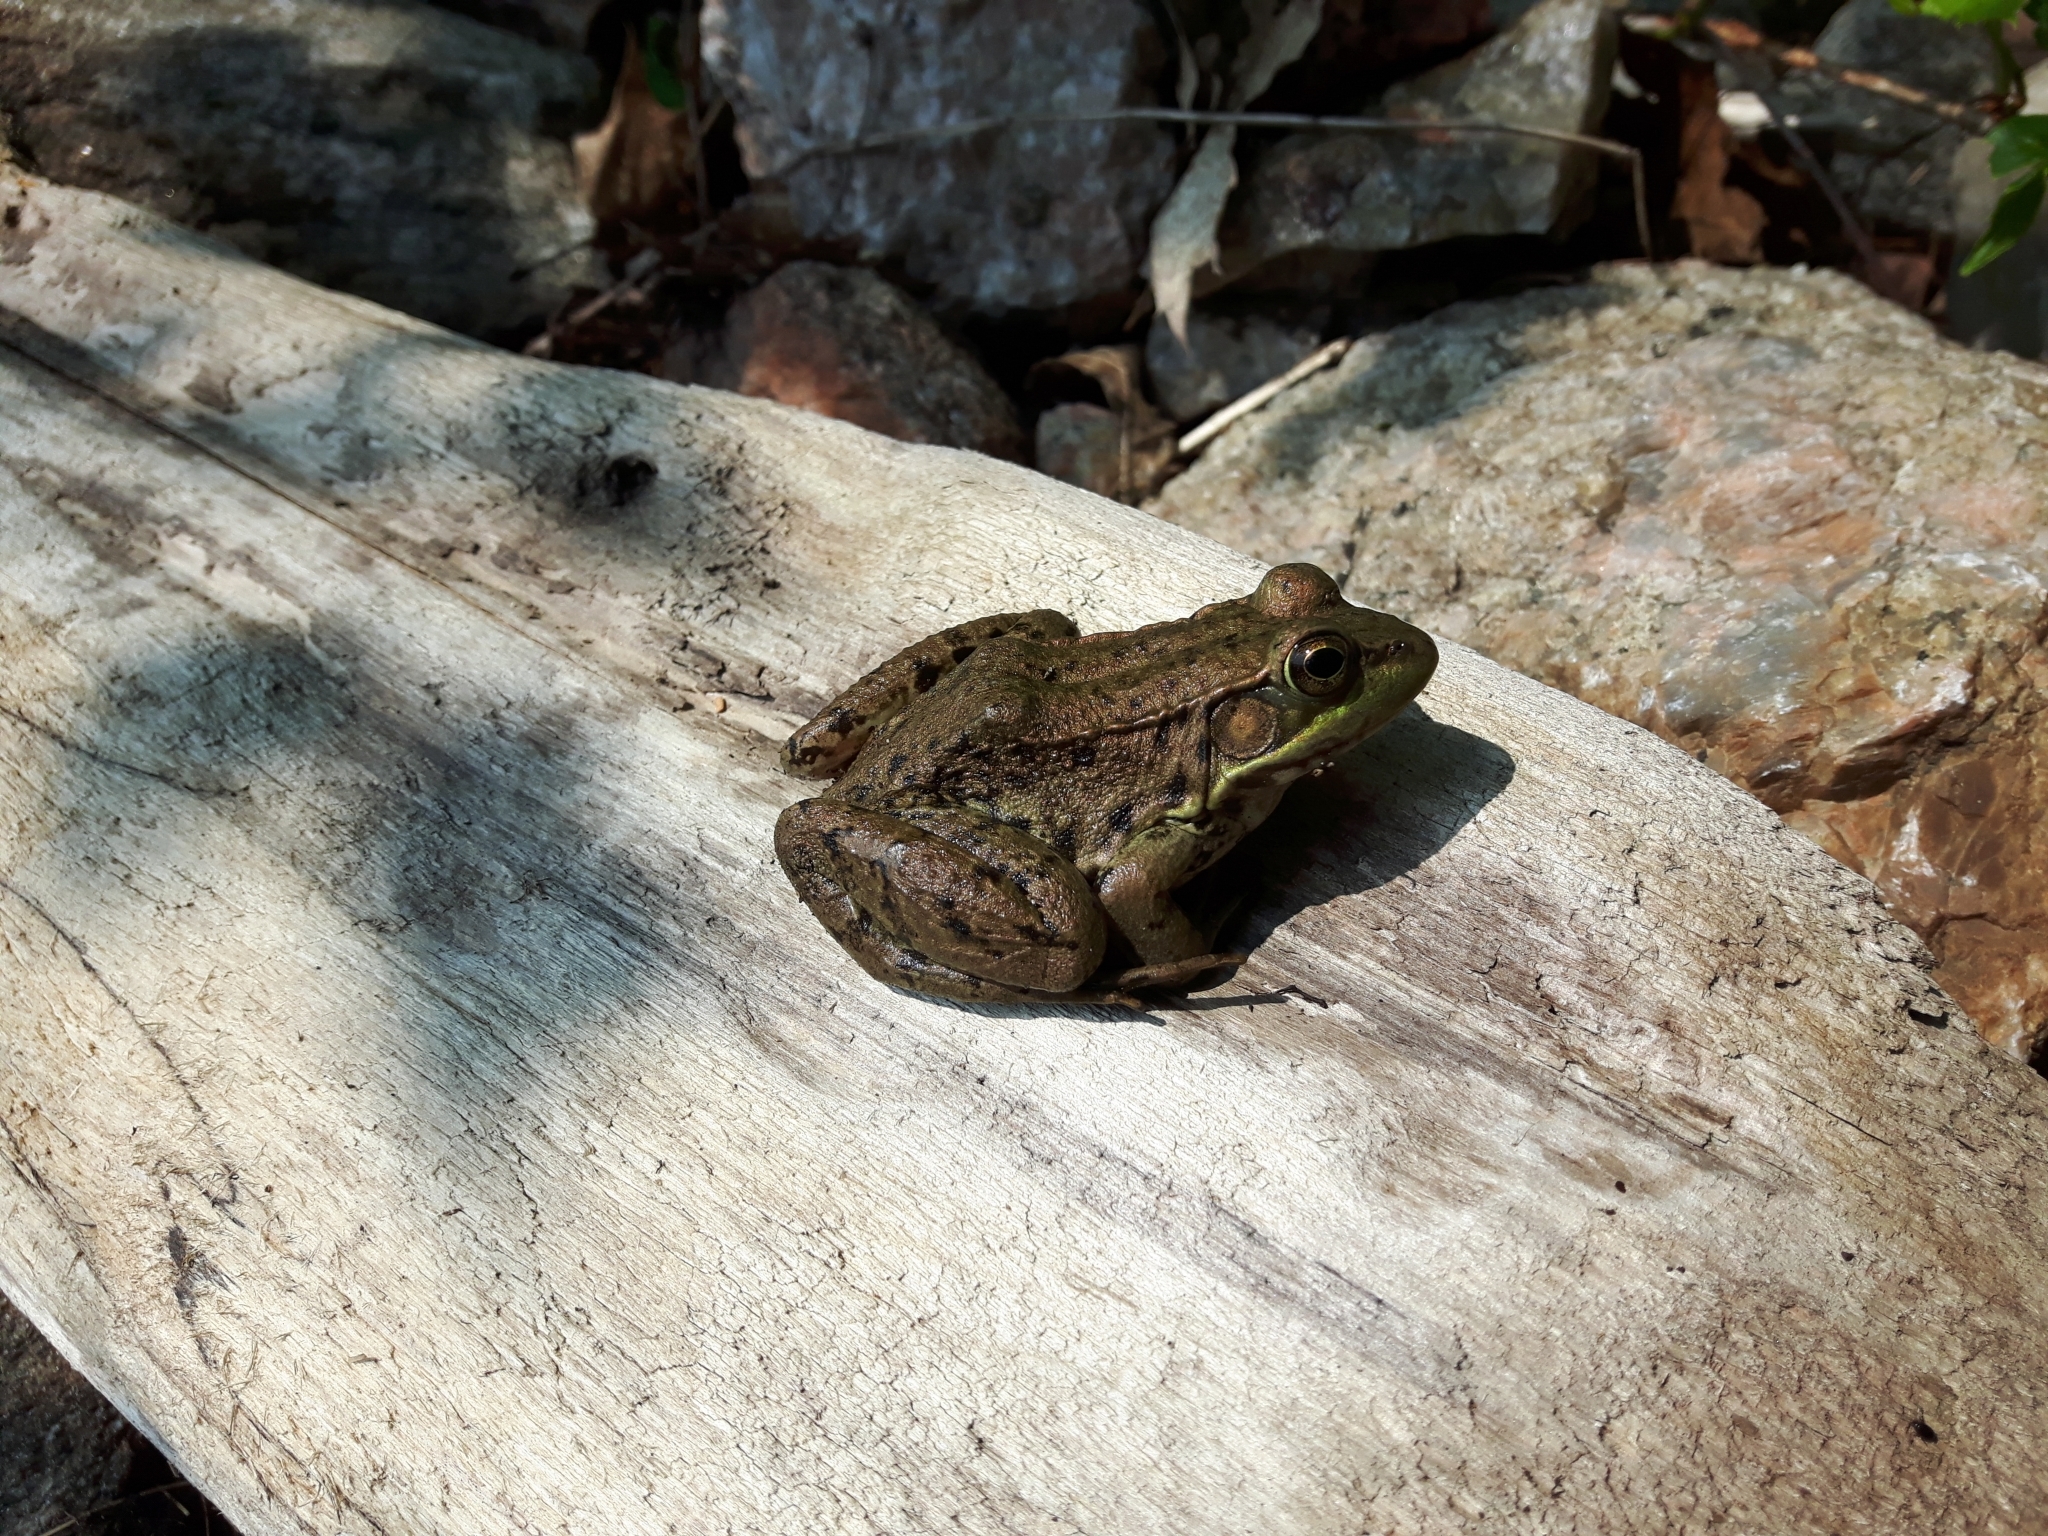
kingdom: Animalia
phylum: Chordata
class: Amphibia
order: Anura
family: Ranidae
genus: Lithobates
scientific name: Lithobates clamitans
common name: Green frog
